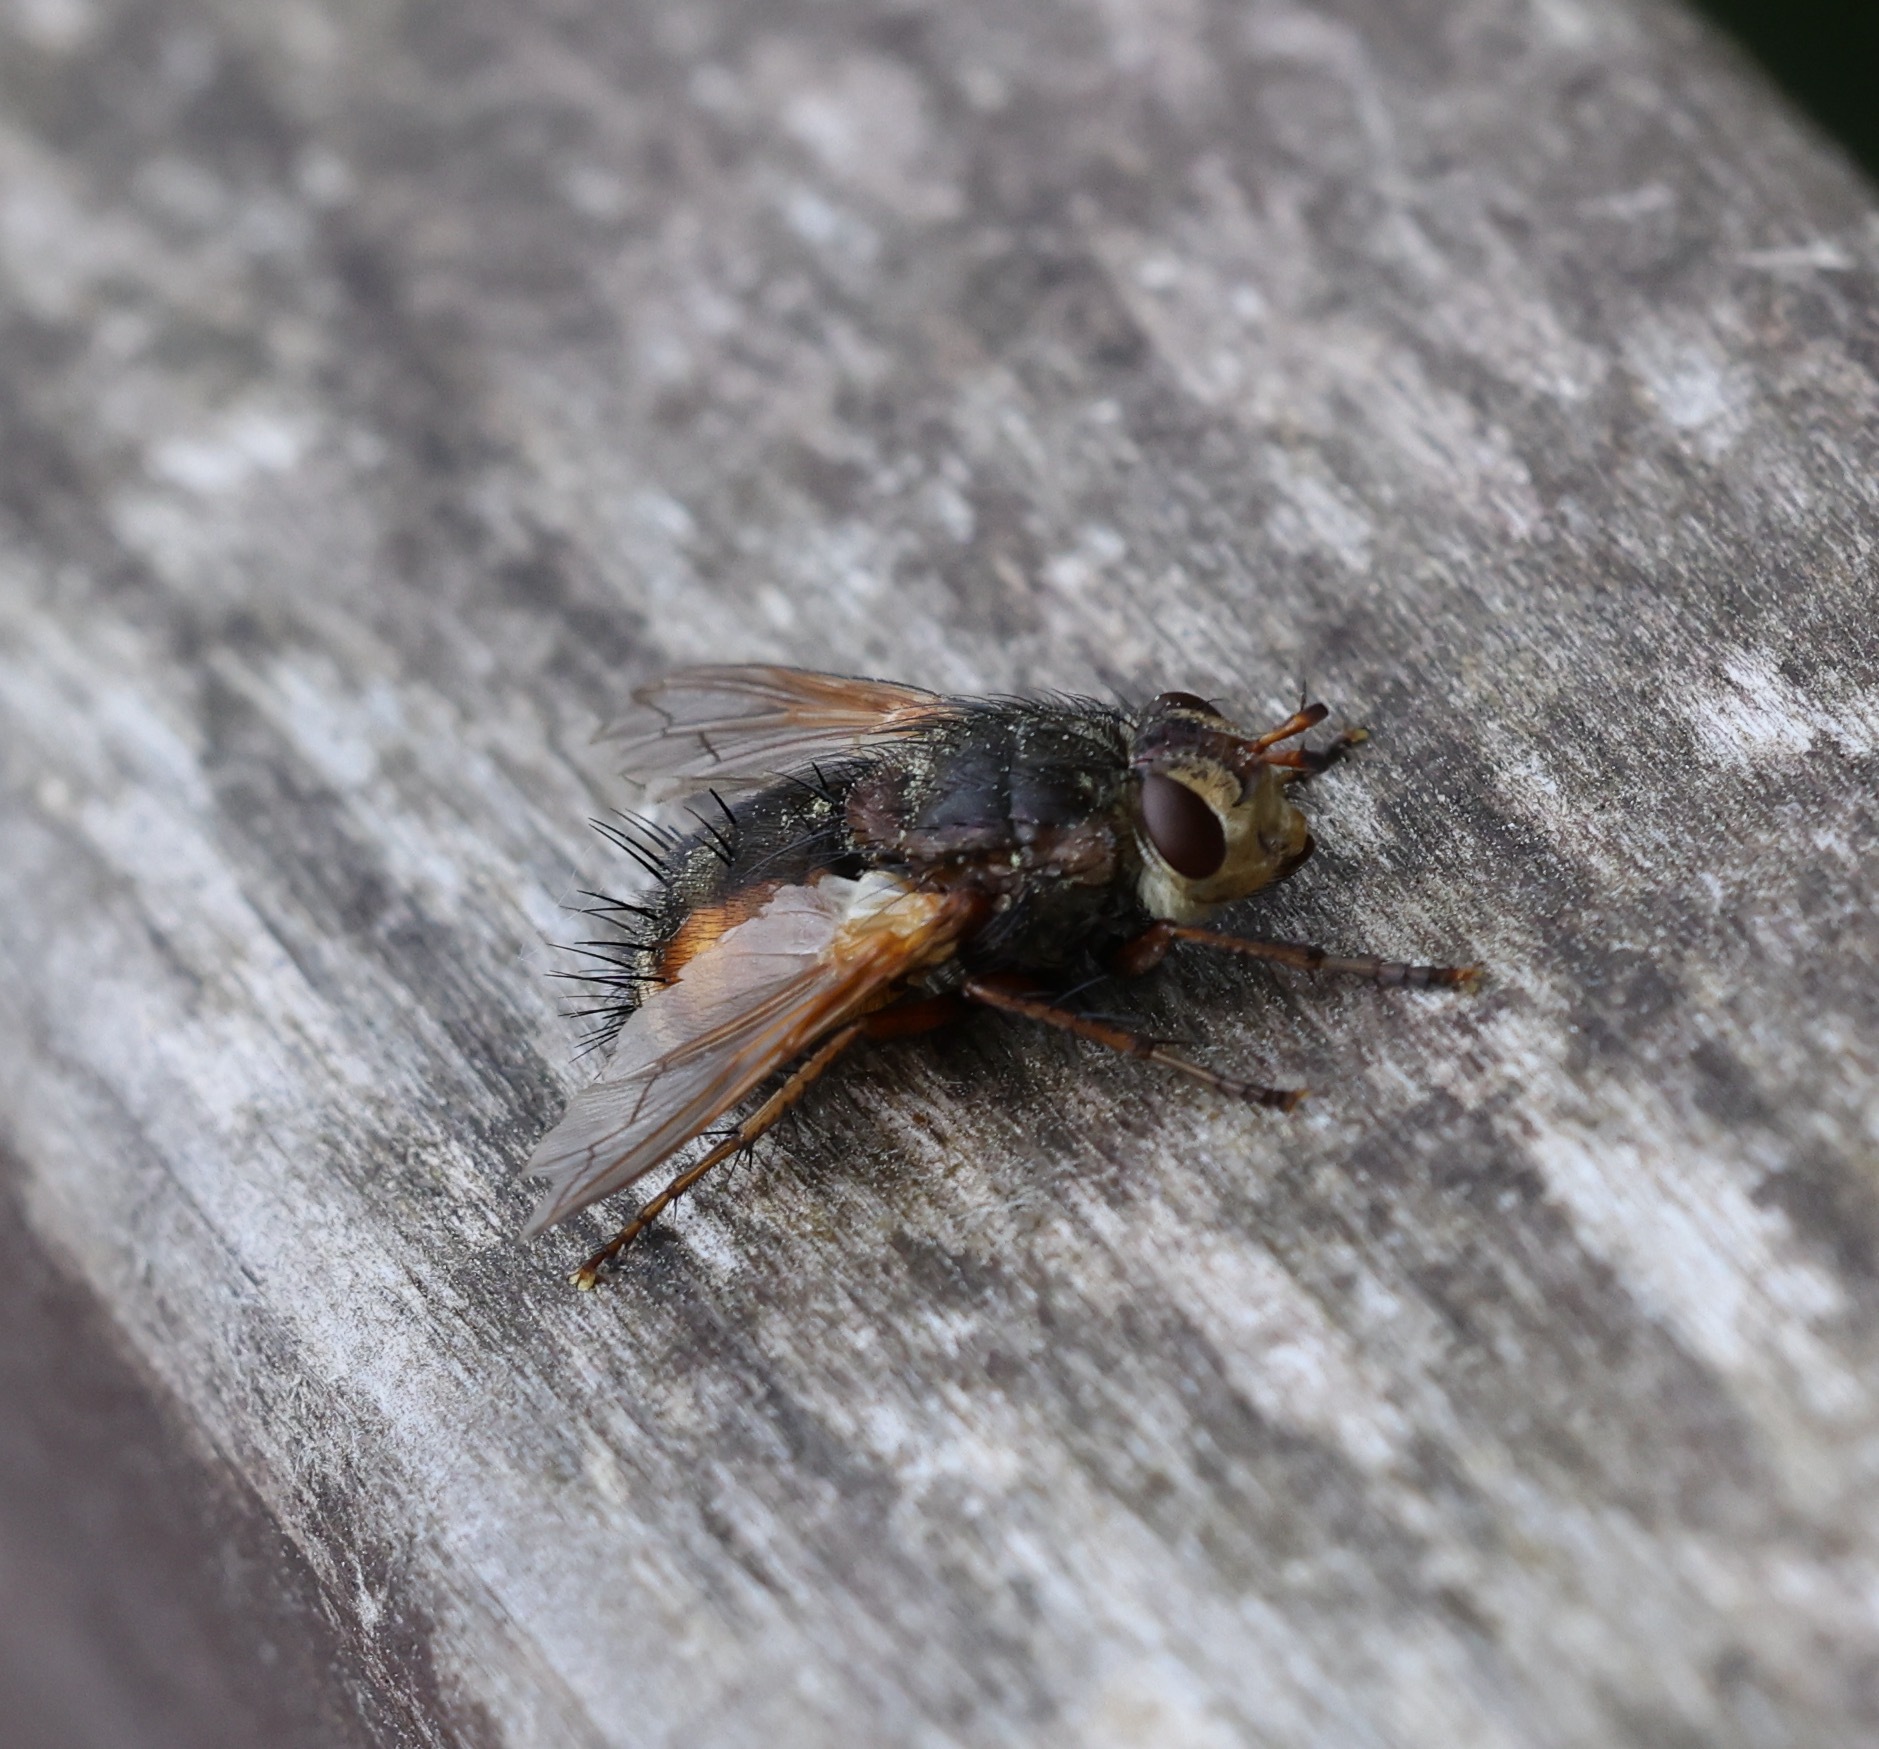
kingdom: Animalia
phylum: Arthropoda
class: Insecta
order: Diptera
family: Tachinidae
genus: Tachina
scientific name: Tachina fera
